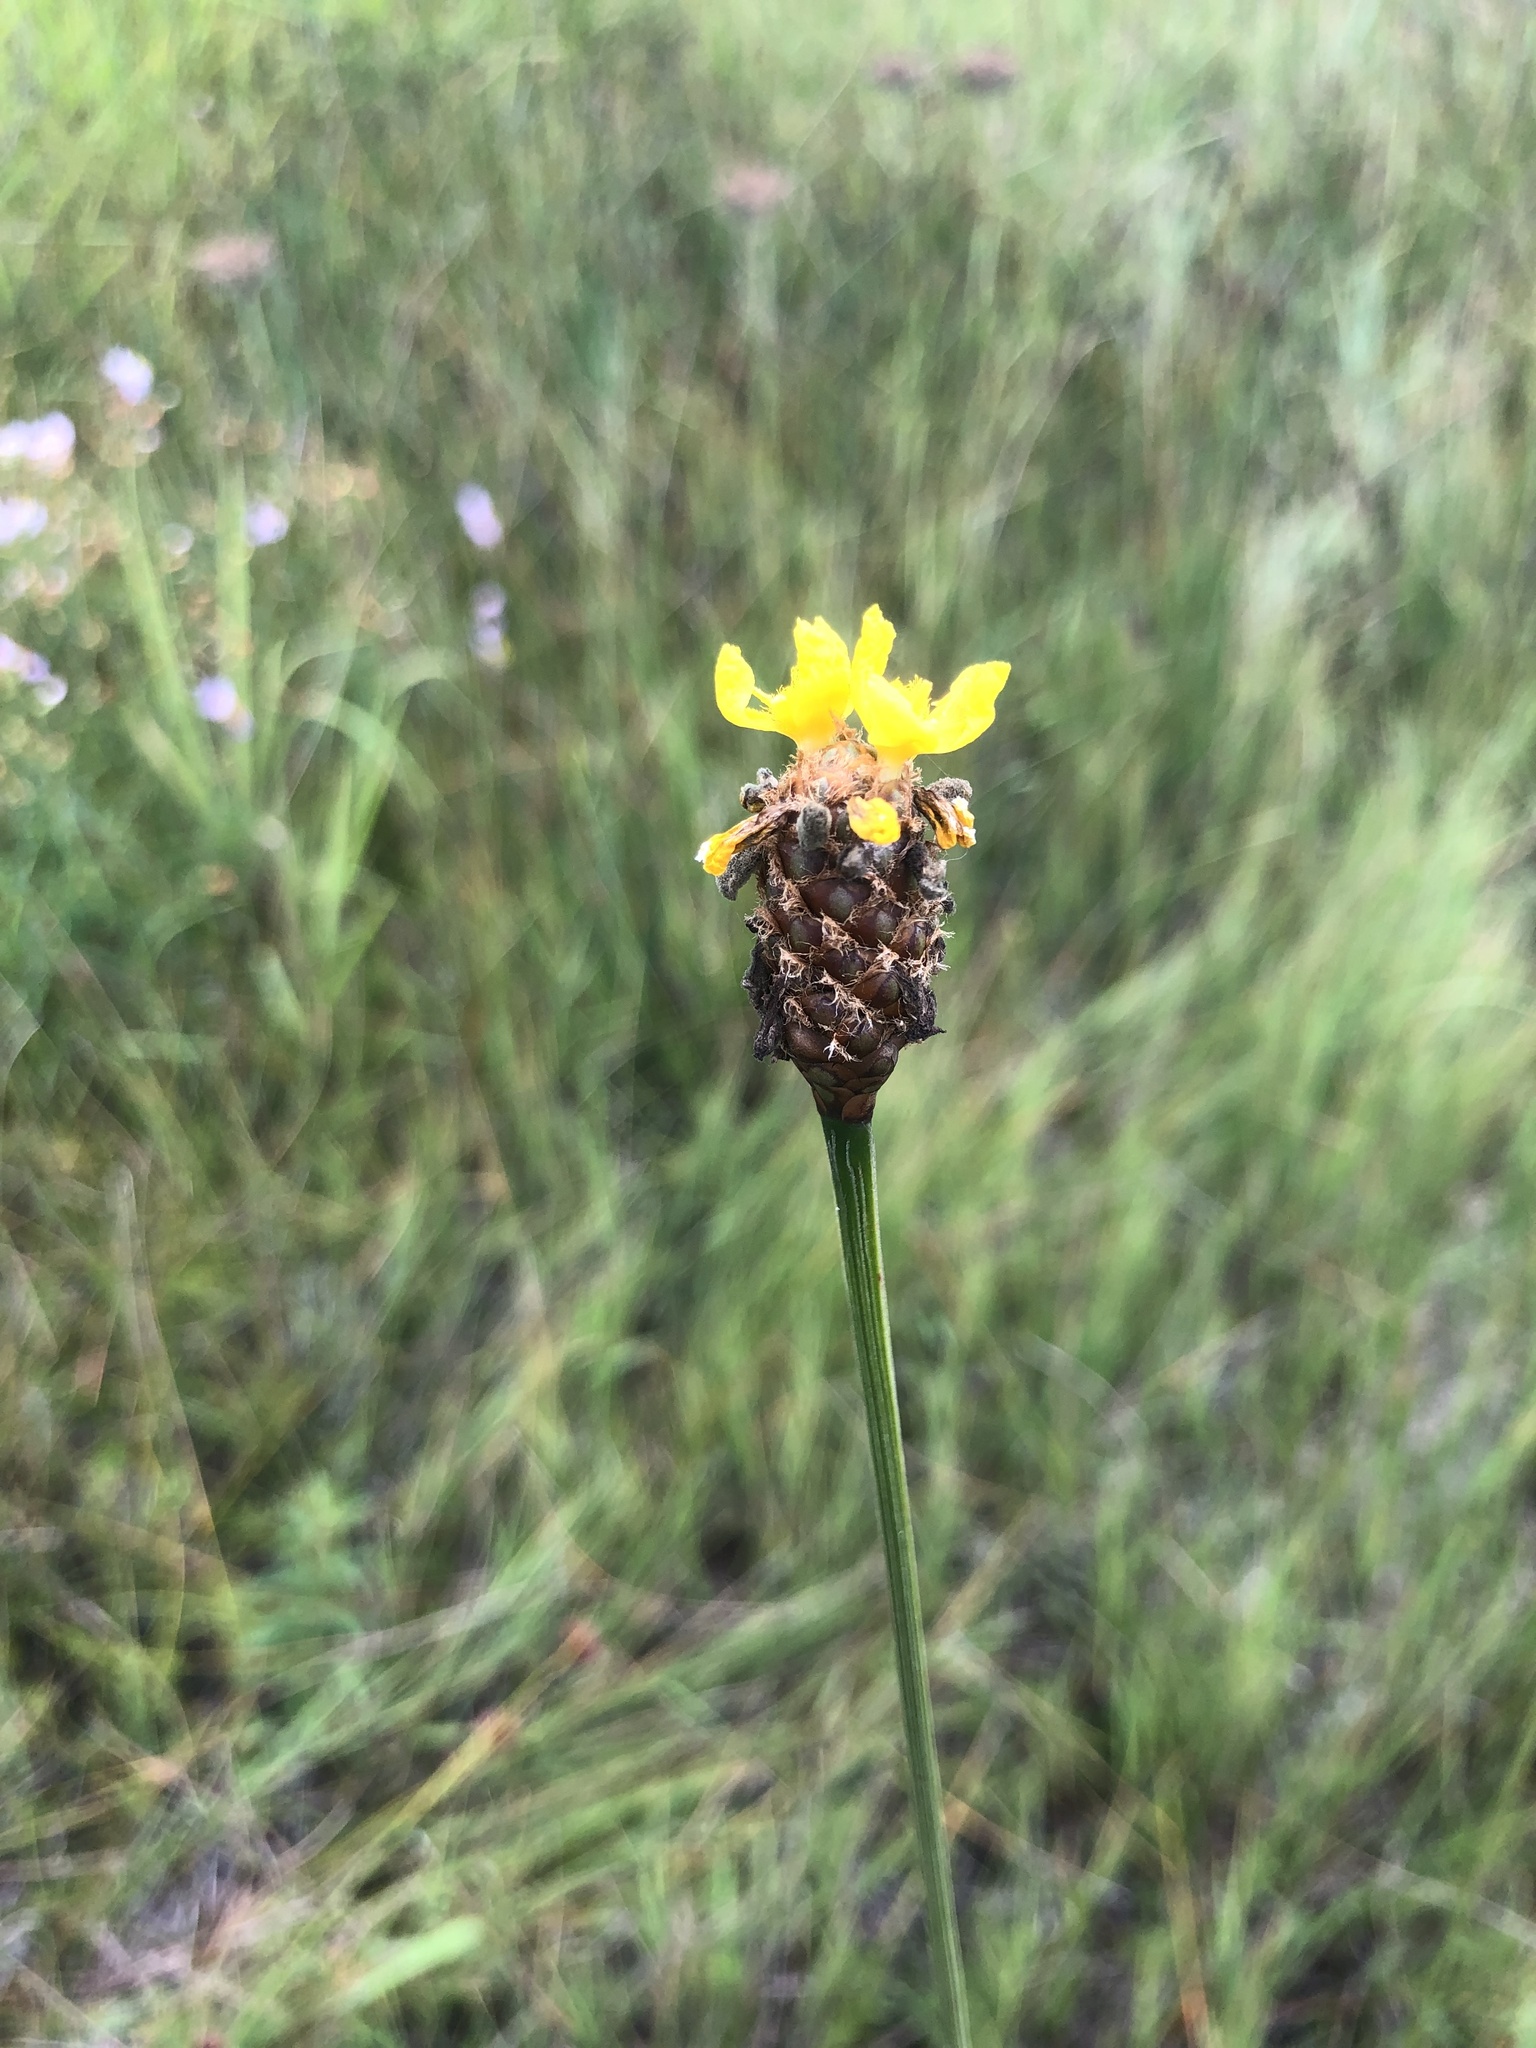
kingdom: Plantae
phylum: Tracheophyta
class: Liliopsida
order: Poales
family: Xyridaceae
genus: Xyris
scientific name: Xyris fimbriata
